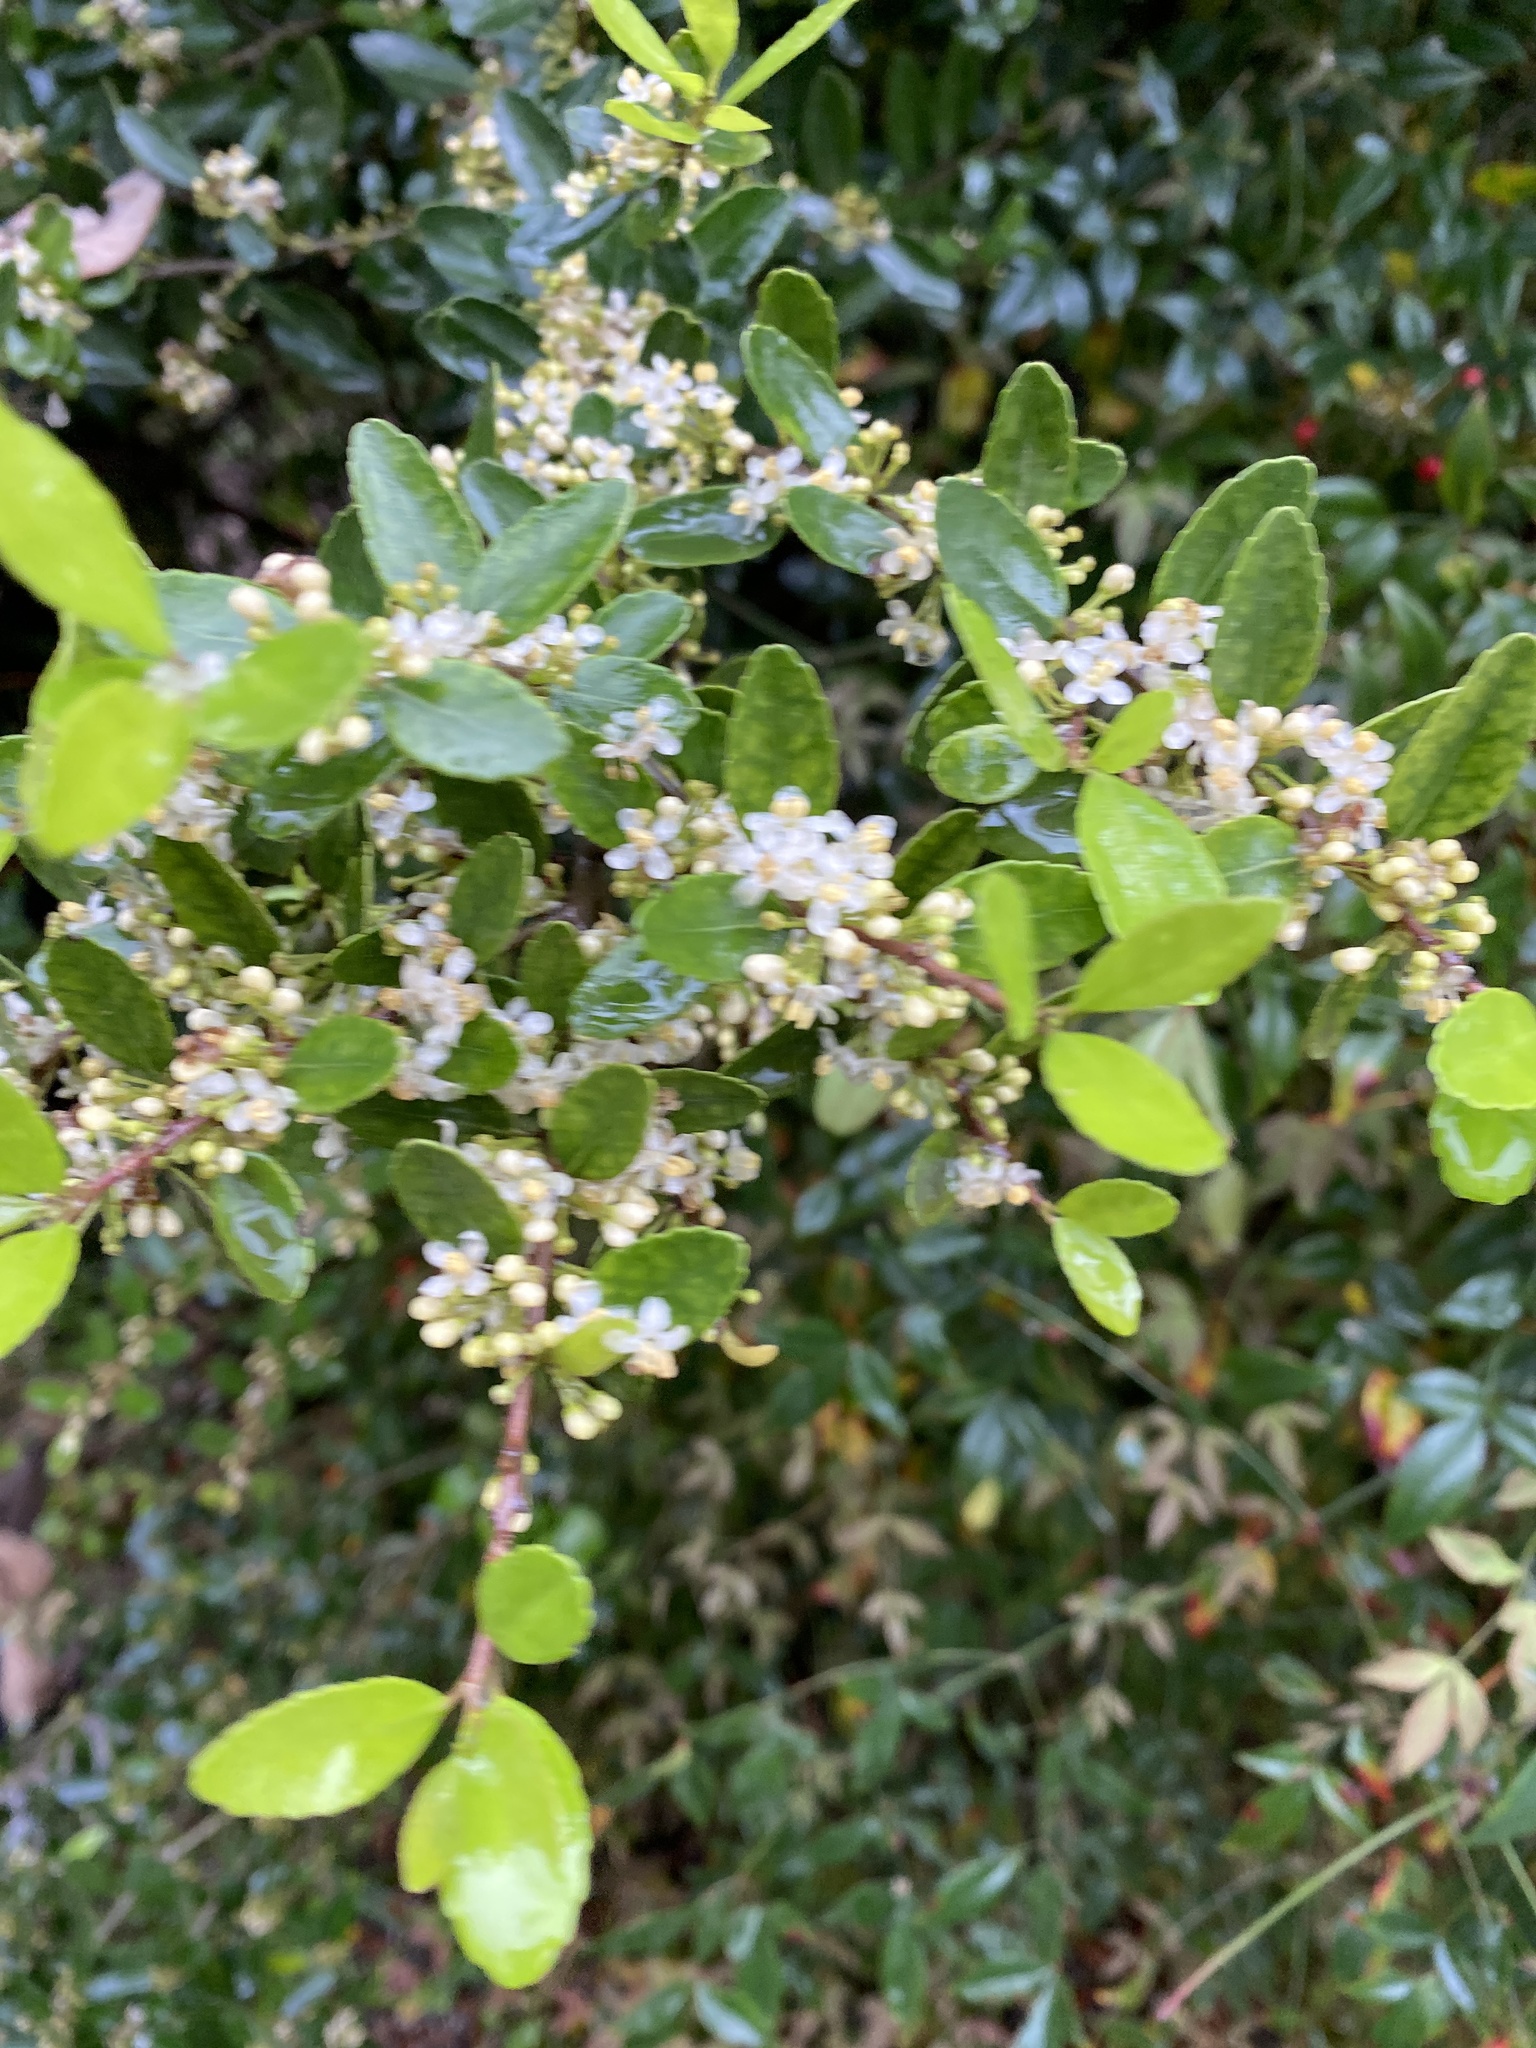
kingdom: Plantae
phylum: Tracheophyta
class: Magnoliopsida
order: Aquifoliales
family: Aquifoliaceae
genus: Ilex
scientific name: Ilex vomitoria
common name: Yaupon holly
